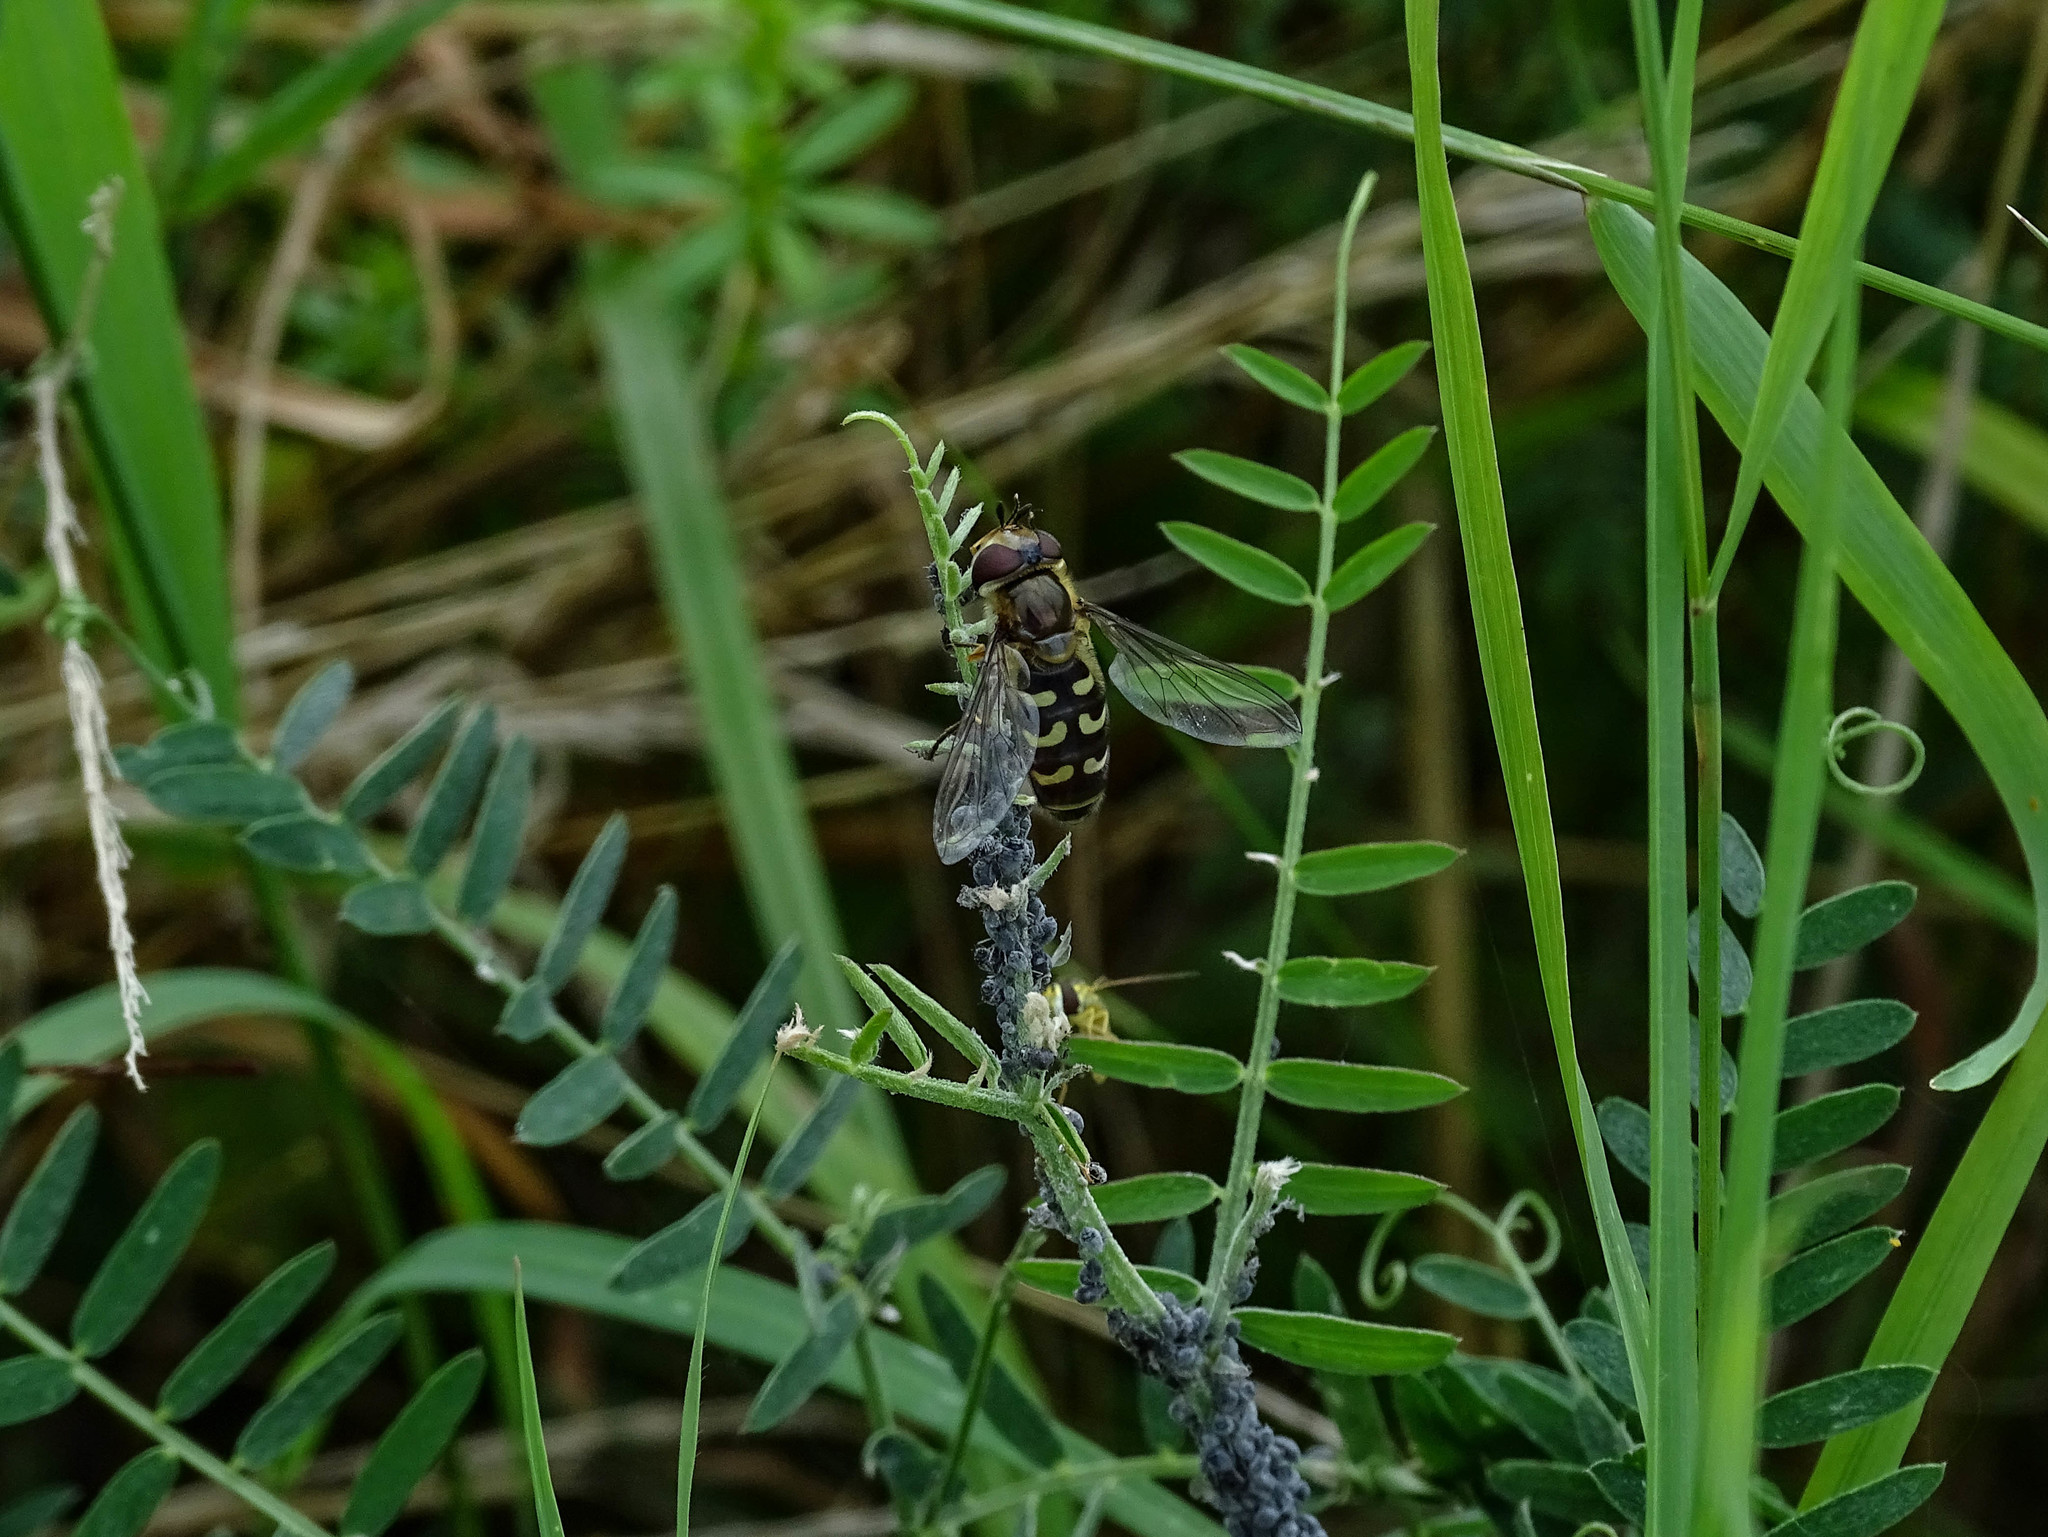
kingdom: Animalia
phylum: Arthropoda
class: Insecta
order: Diptera
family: Syrphidae
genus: Scaeva
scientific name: Scaeva selenitica
